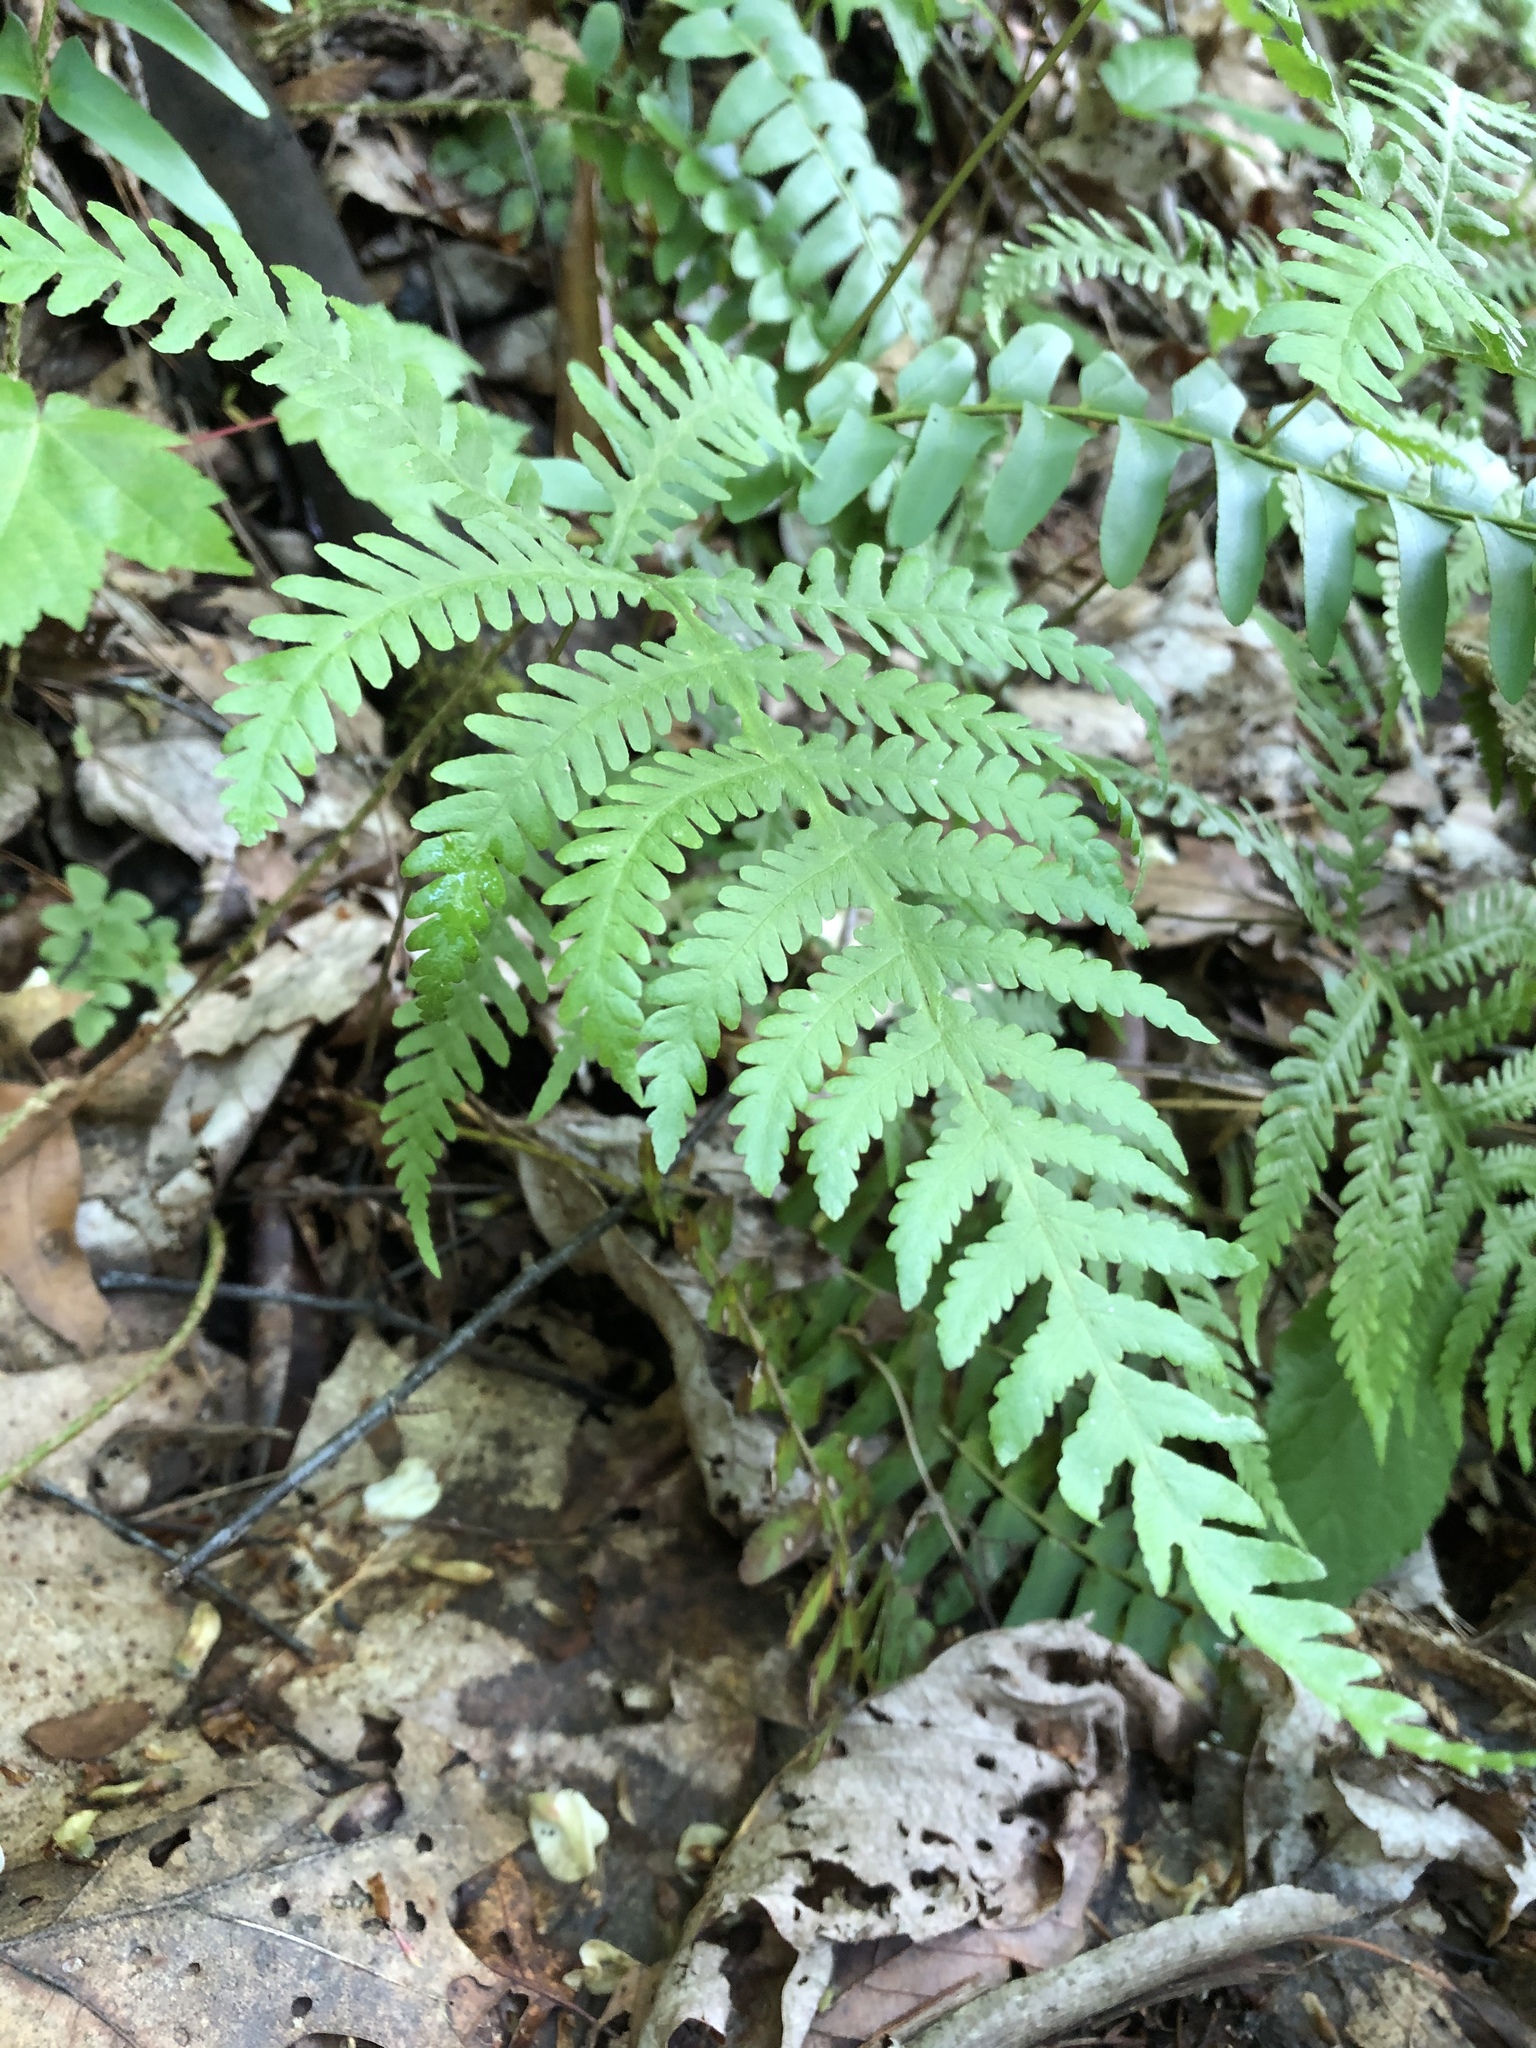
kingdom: Plantae
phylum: Tracheophyta
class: Polypodiopsida
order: Polypodiales
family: Thelypteridaceae
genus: Phegopteris
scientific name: Phegopteris hexagonoptera
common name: Broad beech fern
